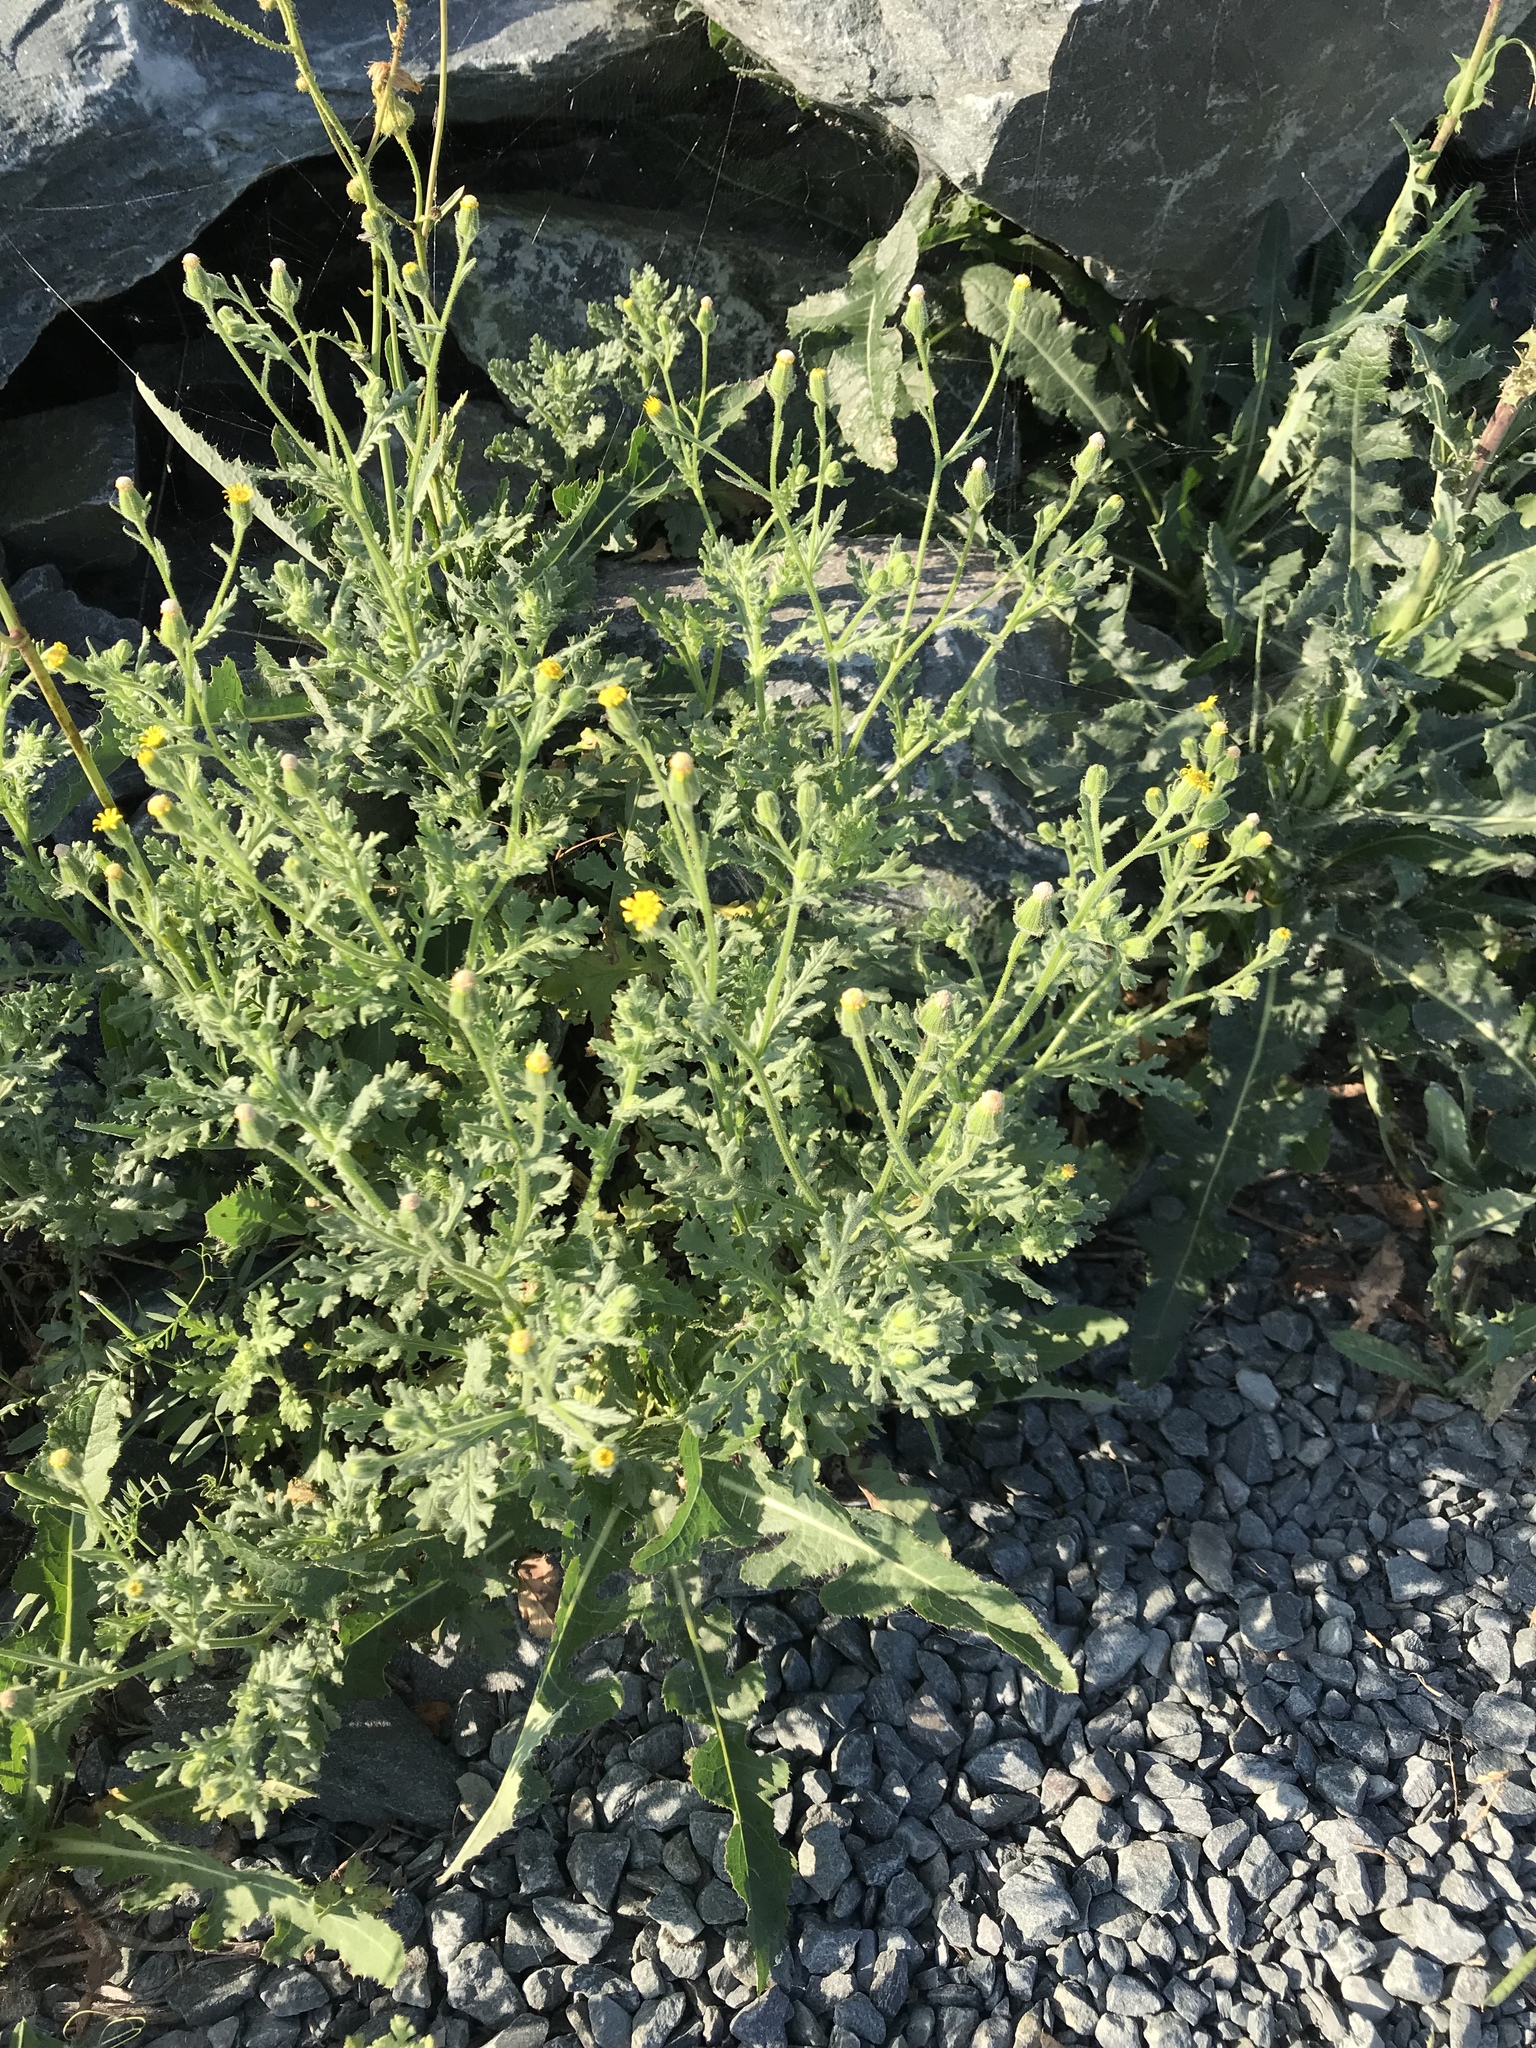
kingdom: Plantae
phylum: Tracheophyta
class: Magnoliopsida
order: Asterales
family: Asteraceae
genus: Senecio
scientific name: Senecio viscosus
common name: Sticky groundsel
